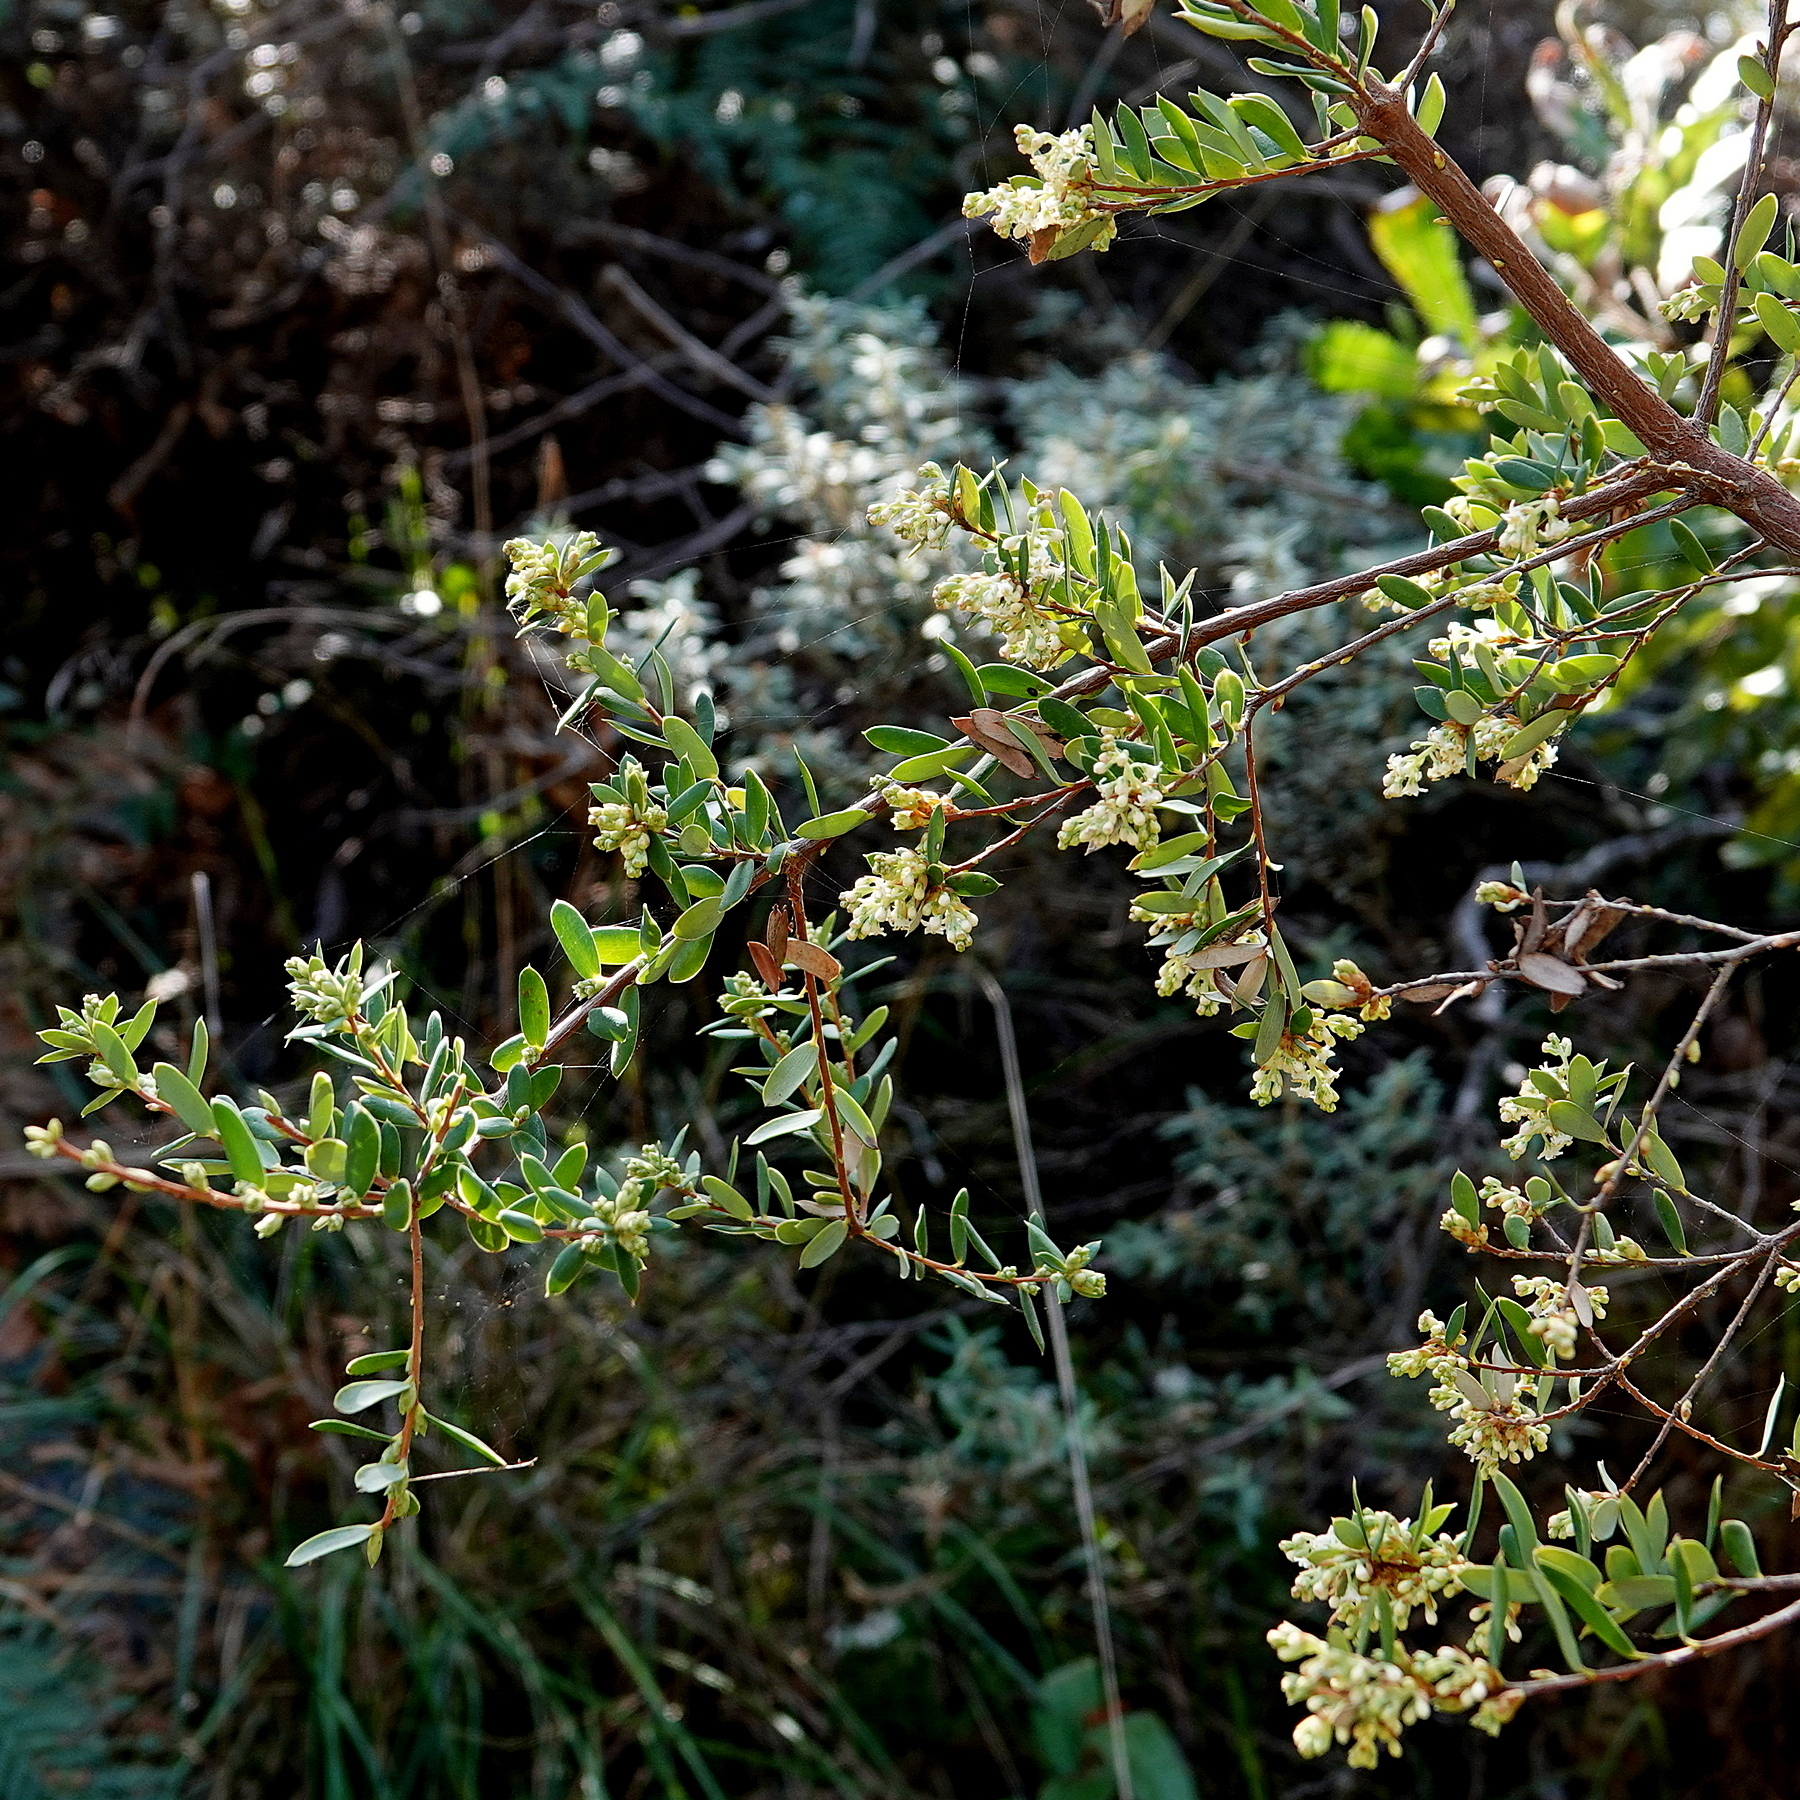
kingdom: Plantae
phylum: Tracheophyta
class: Magnoliopsida
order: Ericales
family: Ericaceae
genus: Monotoca
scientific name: Monotoca elliptica
